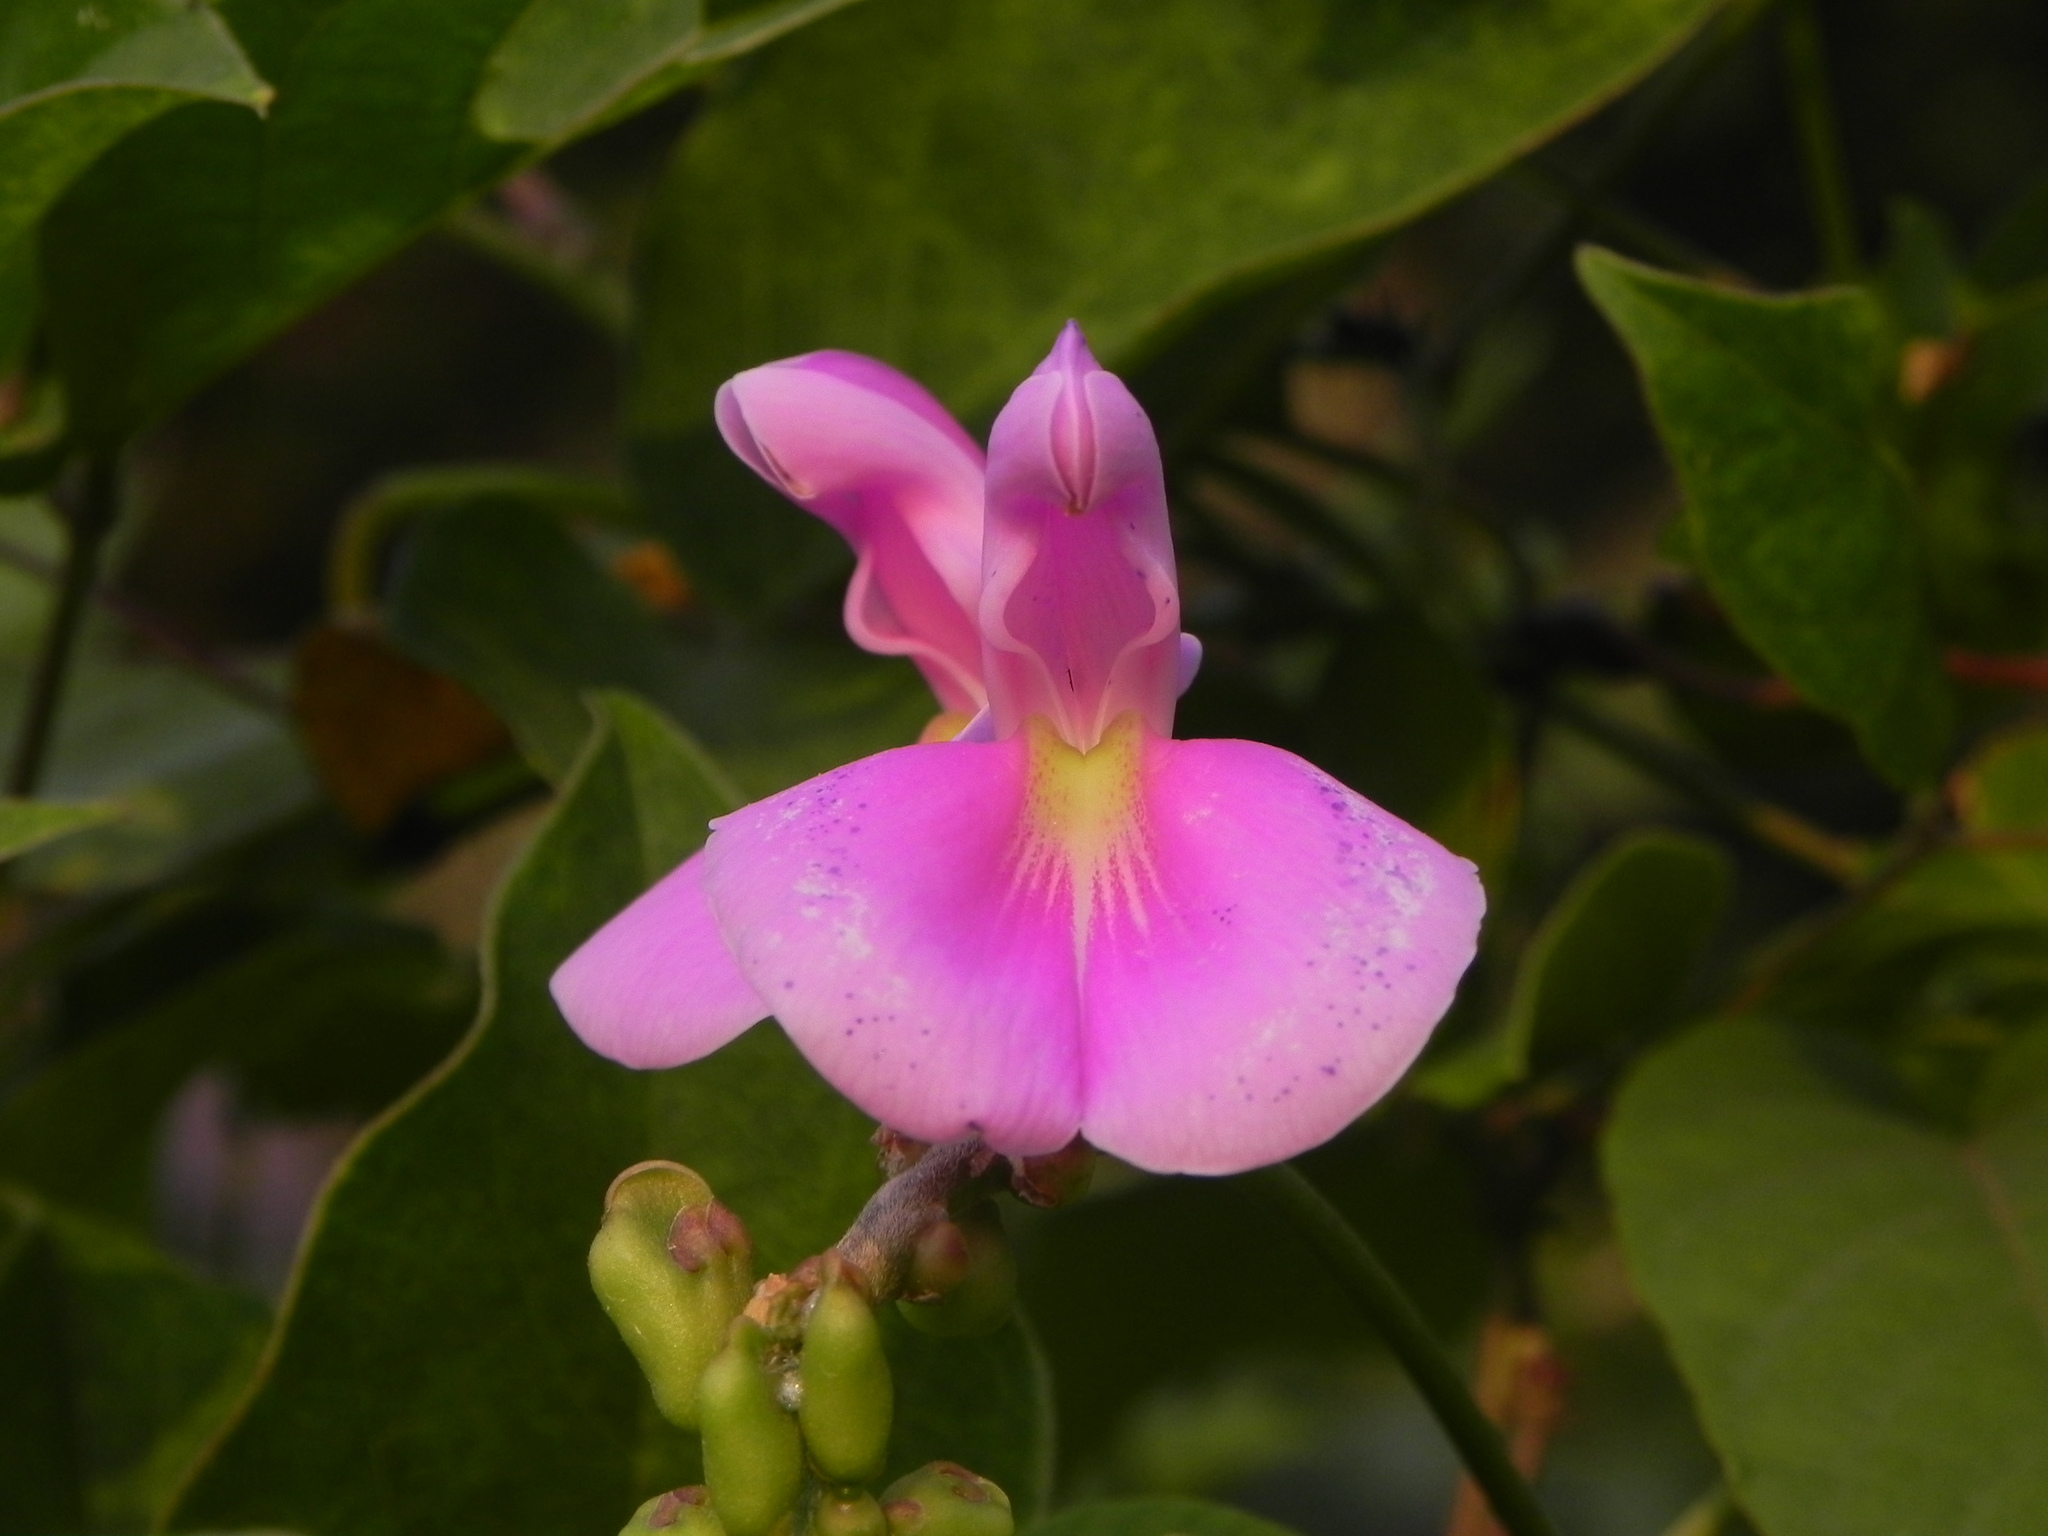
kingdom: Plantae
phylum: Tracheophyta
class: Magnoliopsida
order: Fabales
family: Fabaceae
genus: Canavalia
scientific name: Canavalia gladiata
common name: Scimitar-bean
